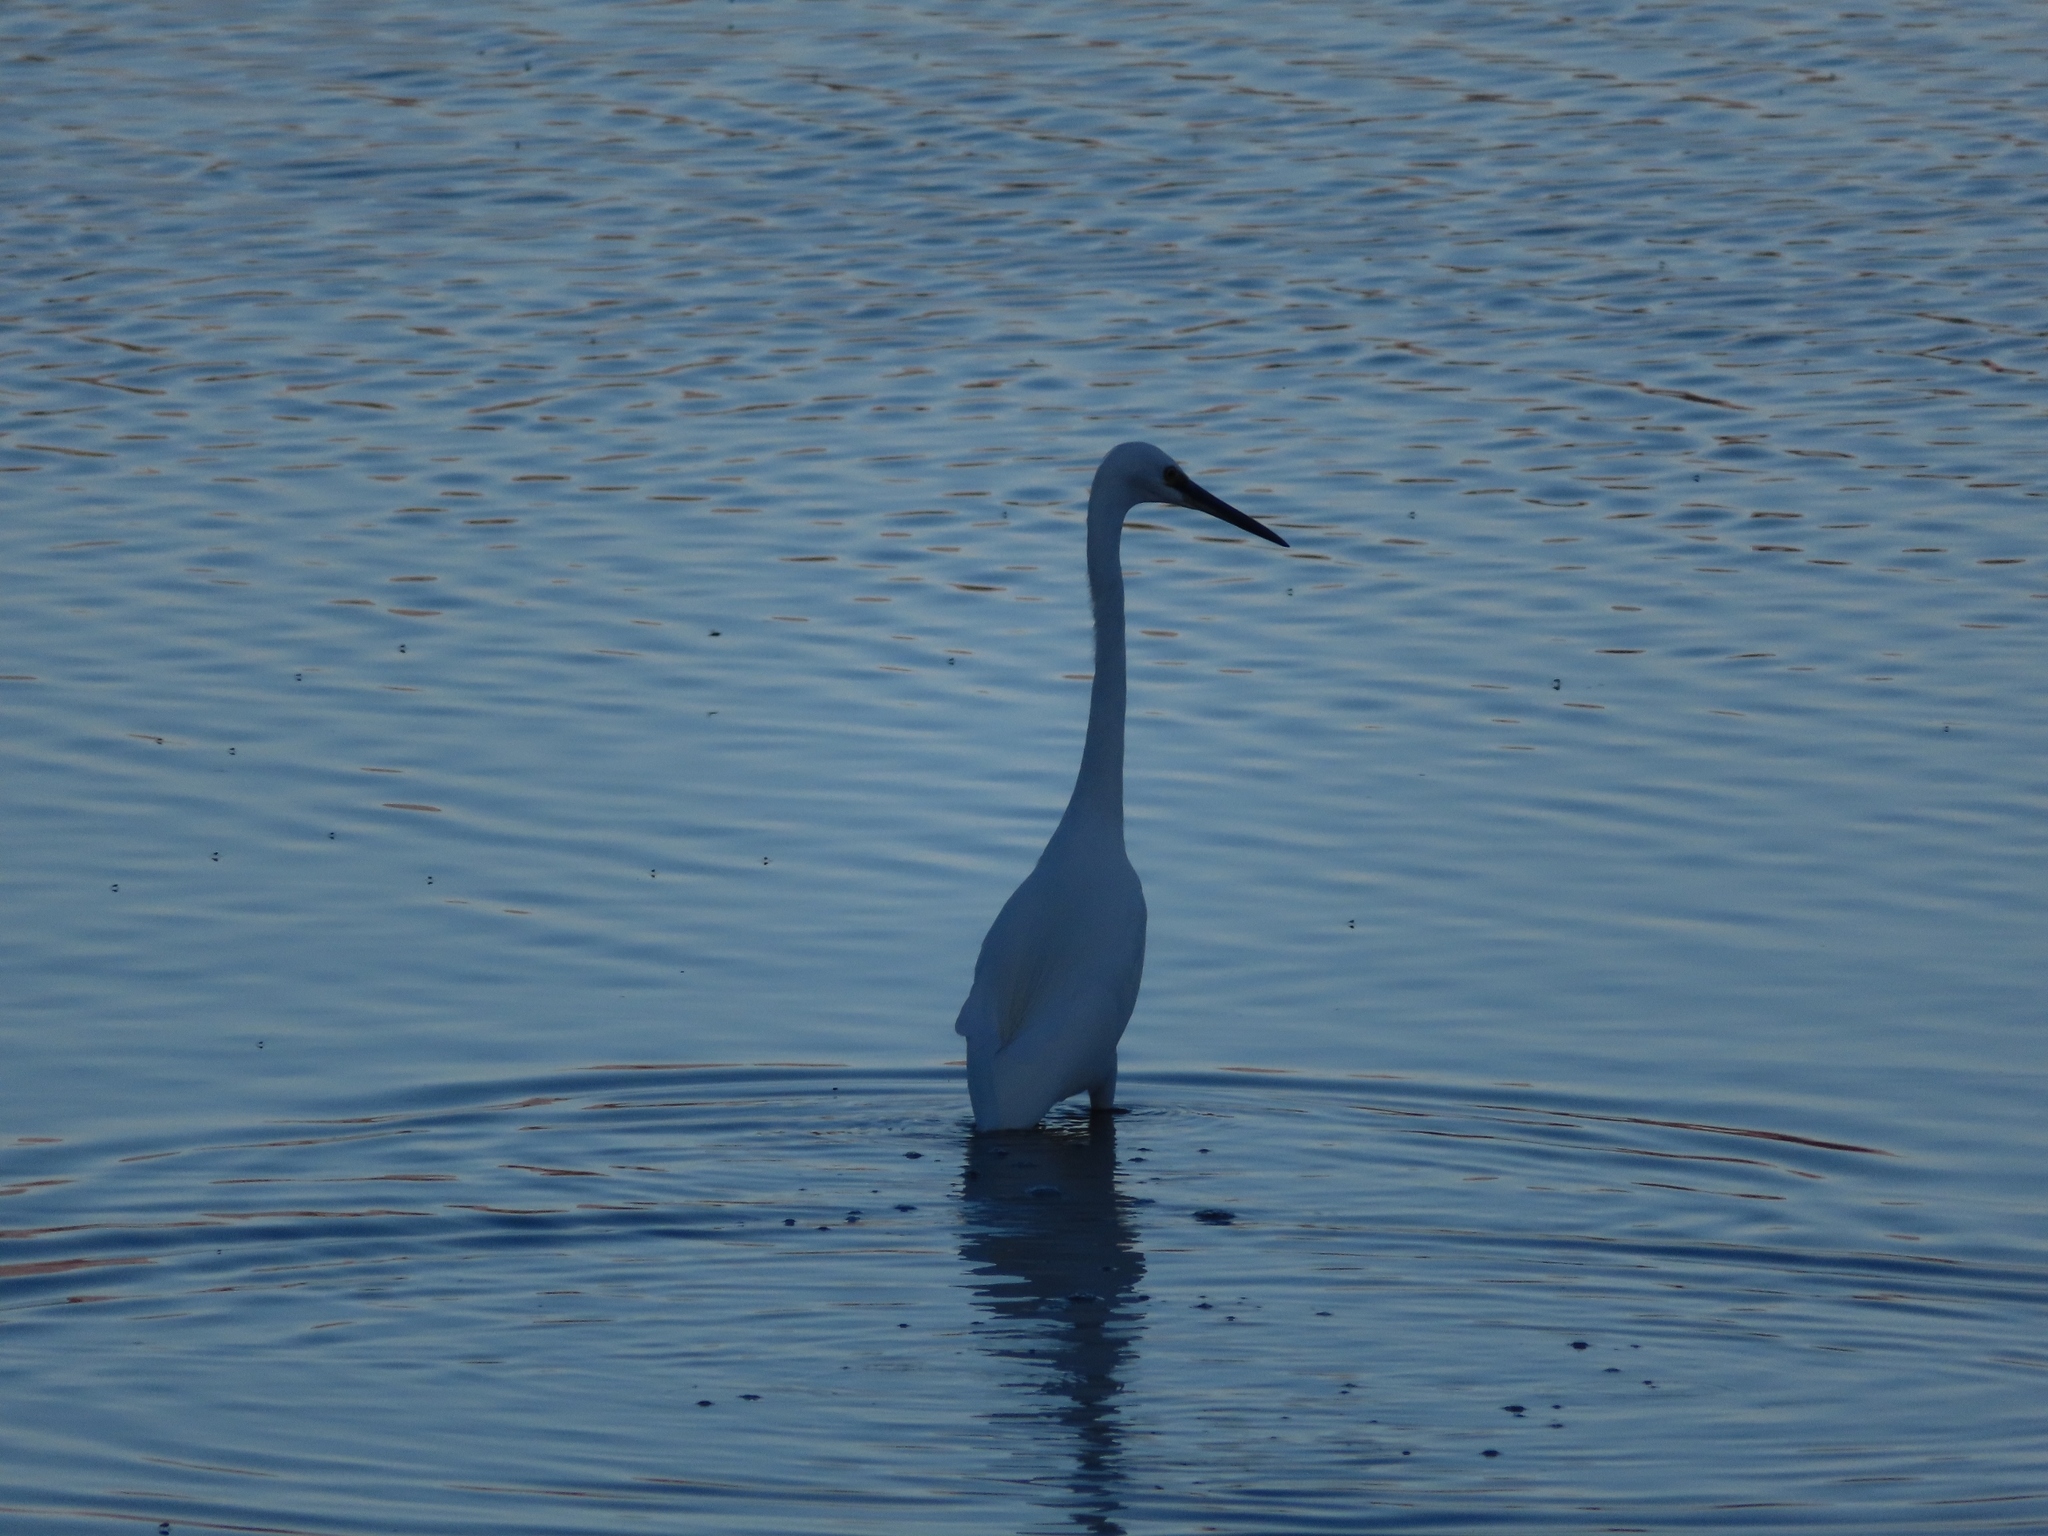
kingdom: Animalia
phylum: Chordata
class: Aves
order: Pelecaniformes
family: Ardeidae
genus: Egretta
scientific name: Egretta garzetta
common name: Little egret
